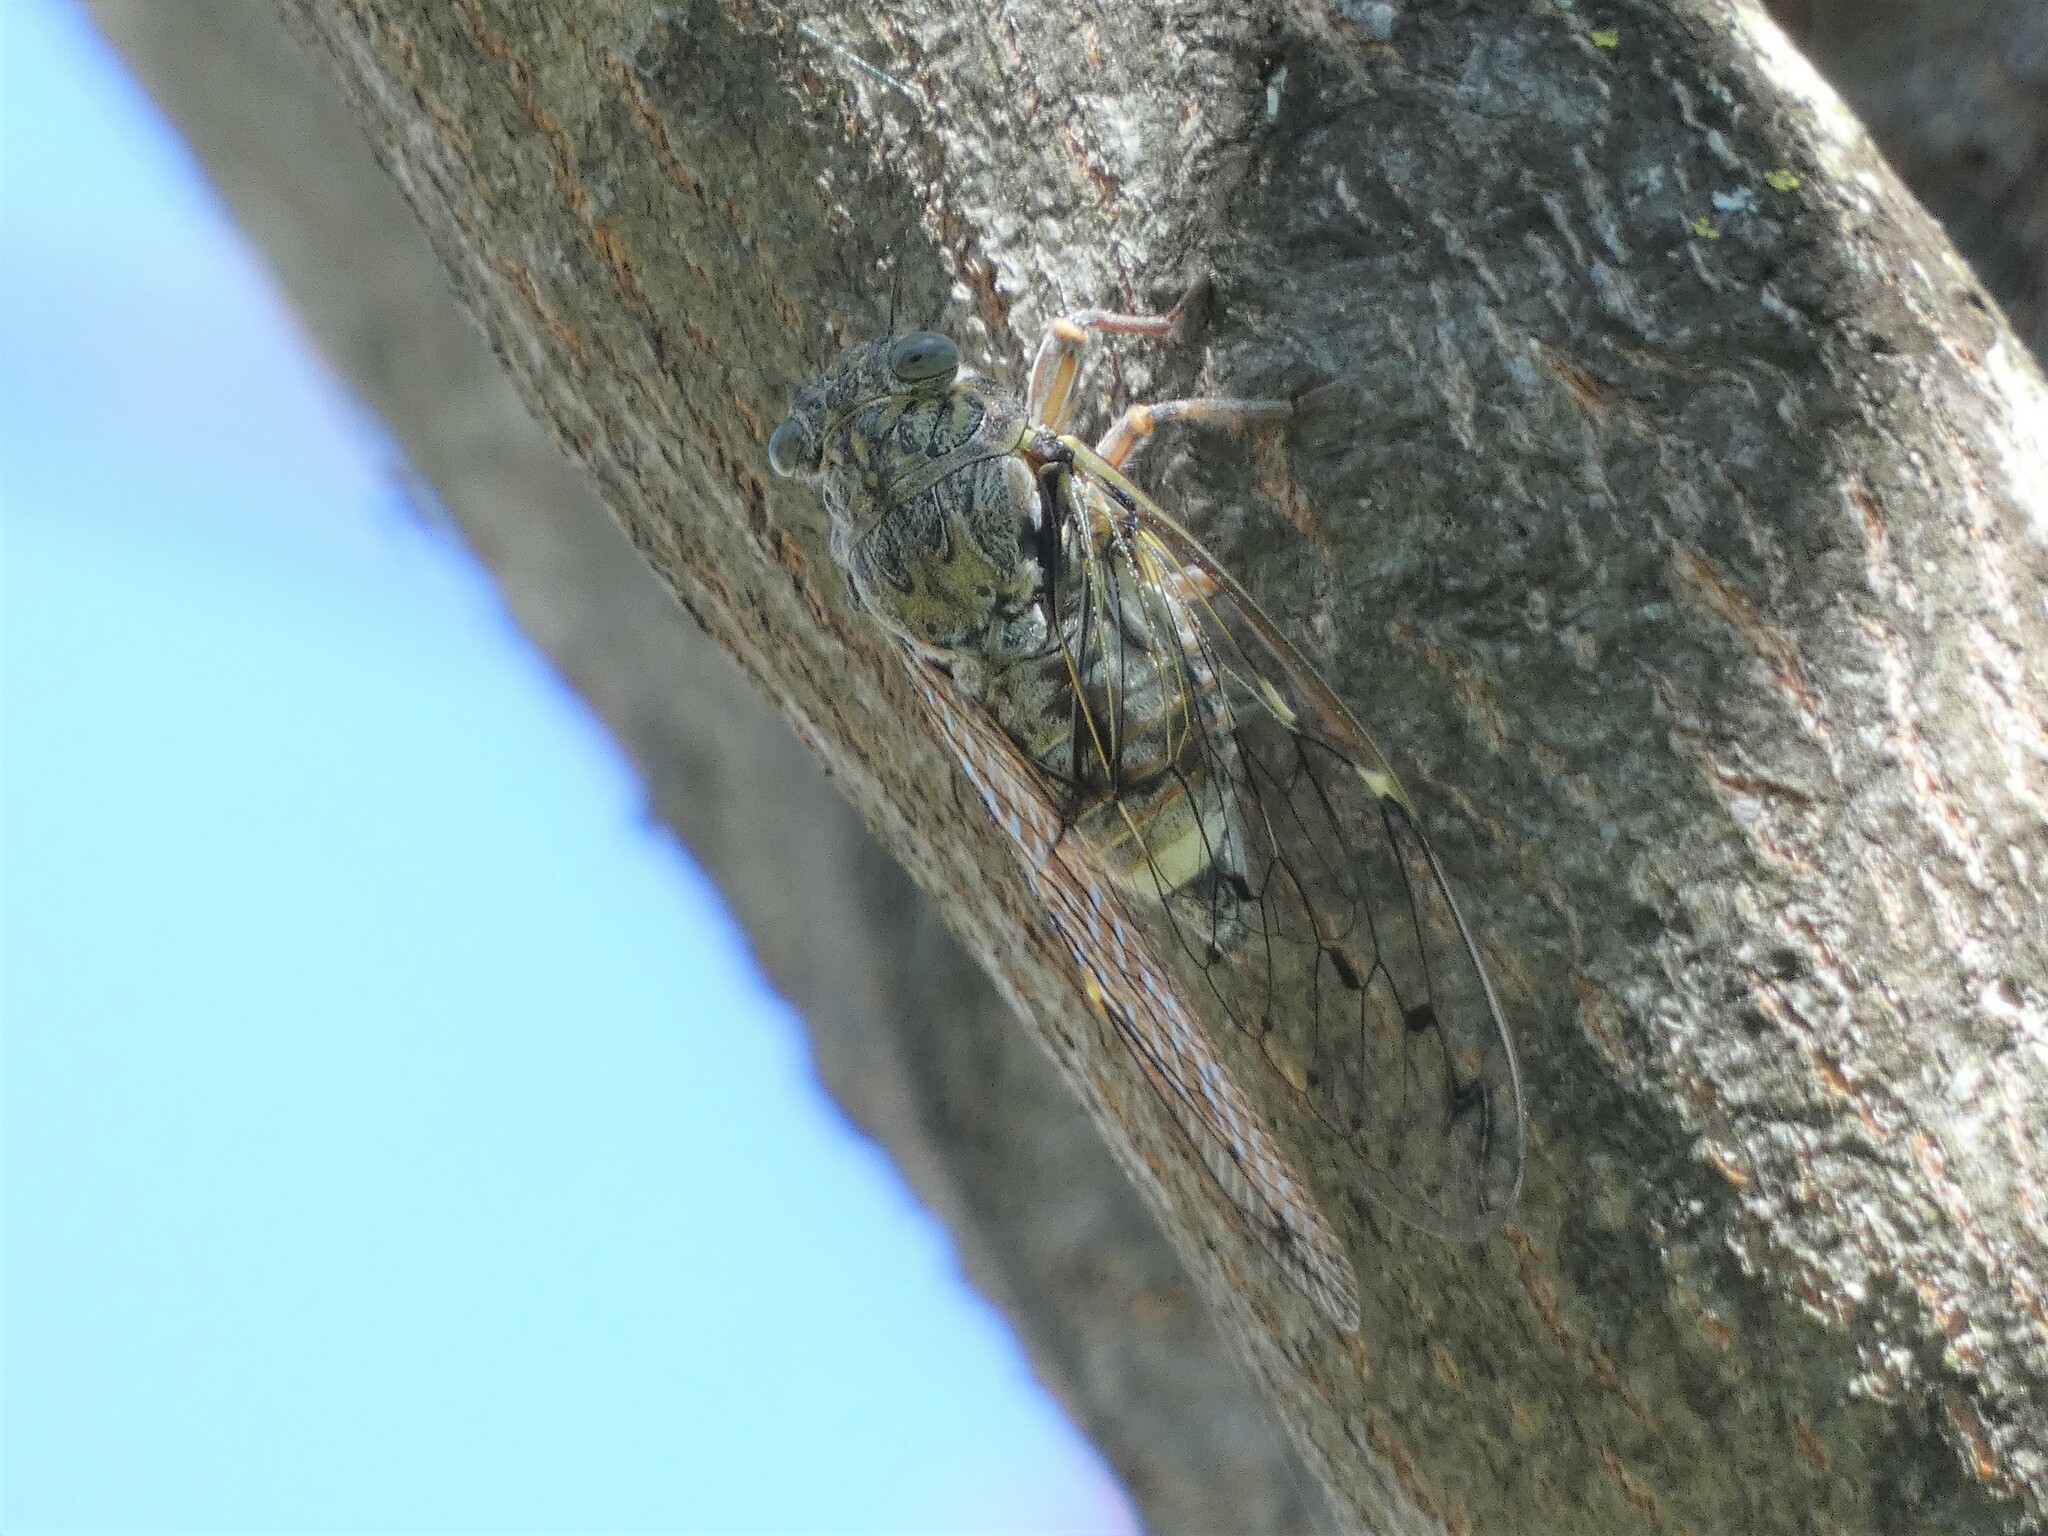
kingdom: Animalia
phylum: Arthropoda
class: Insecta
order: Hemiptera
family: Cicadidae
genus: Cicada
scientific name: Cicada orni
